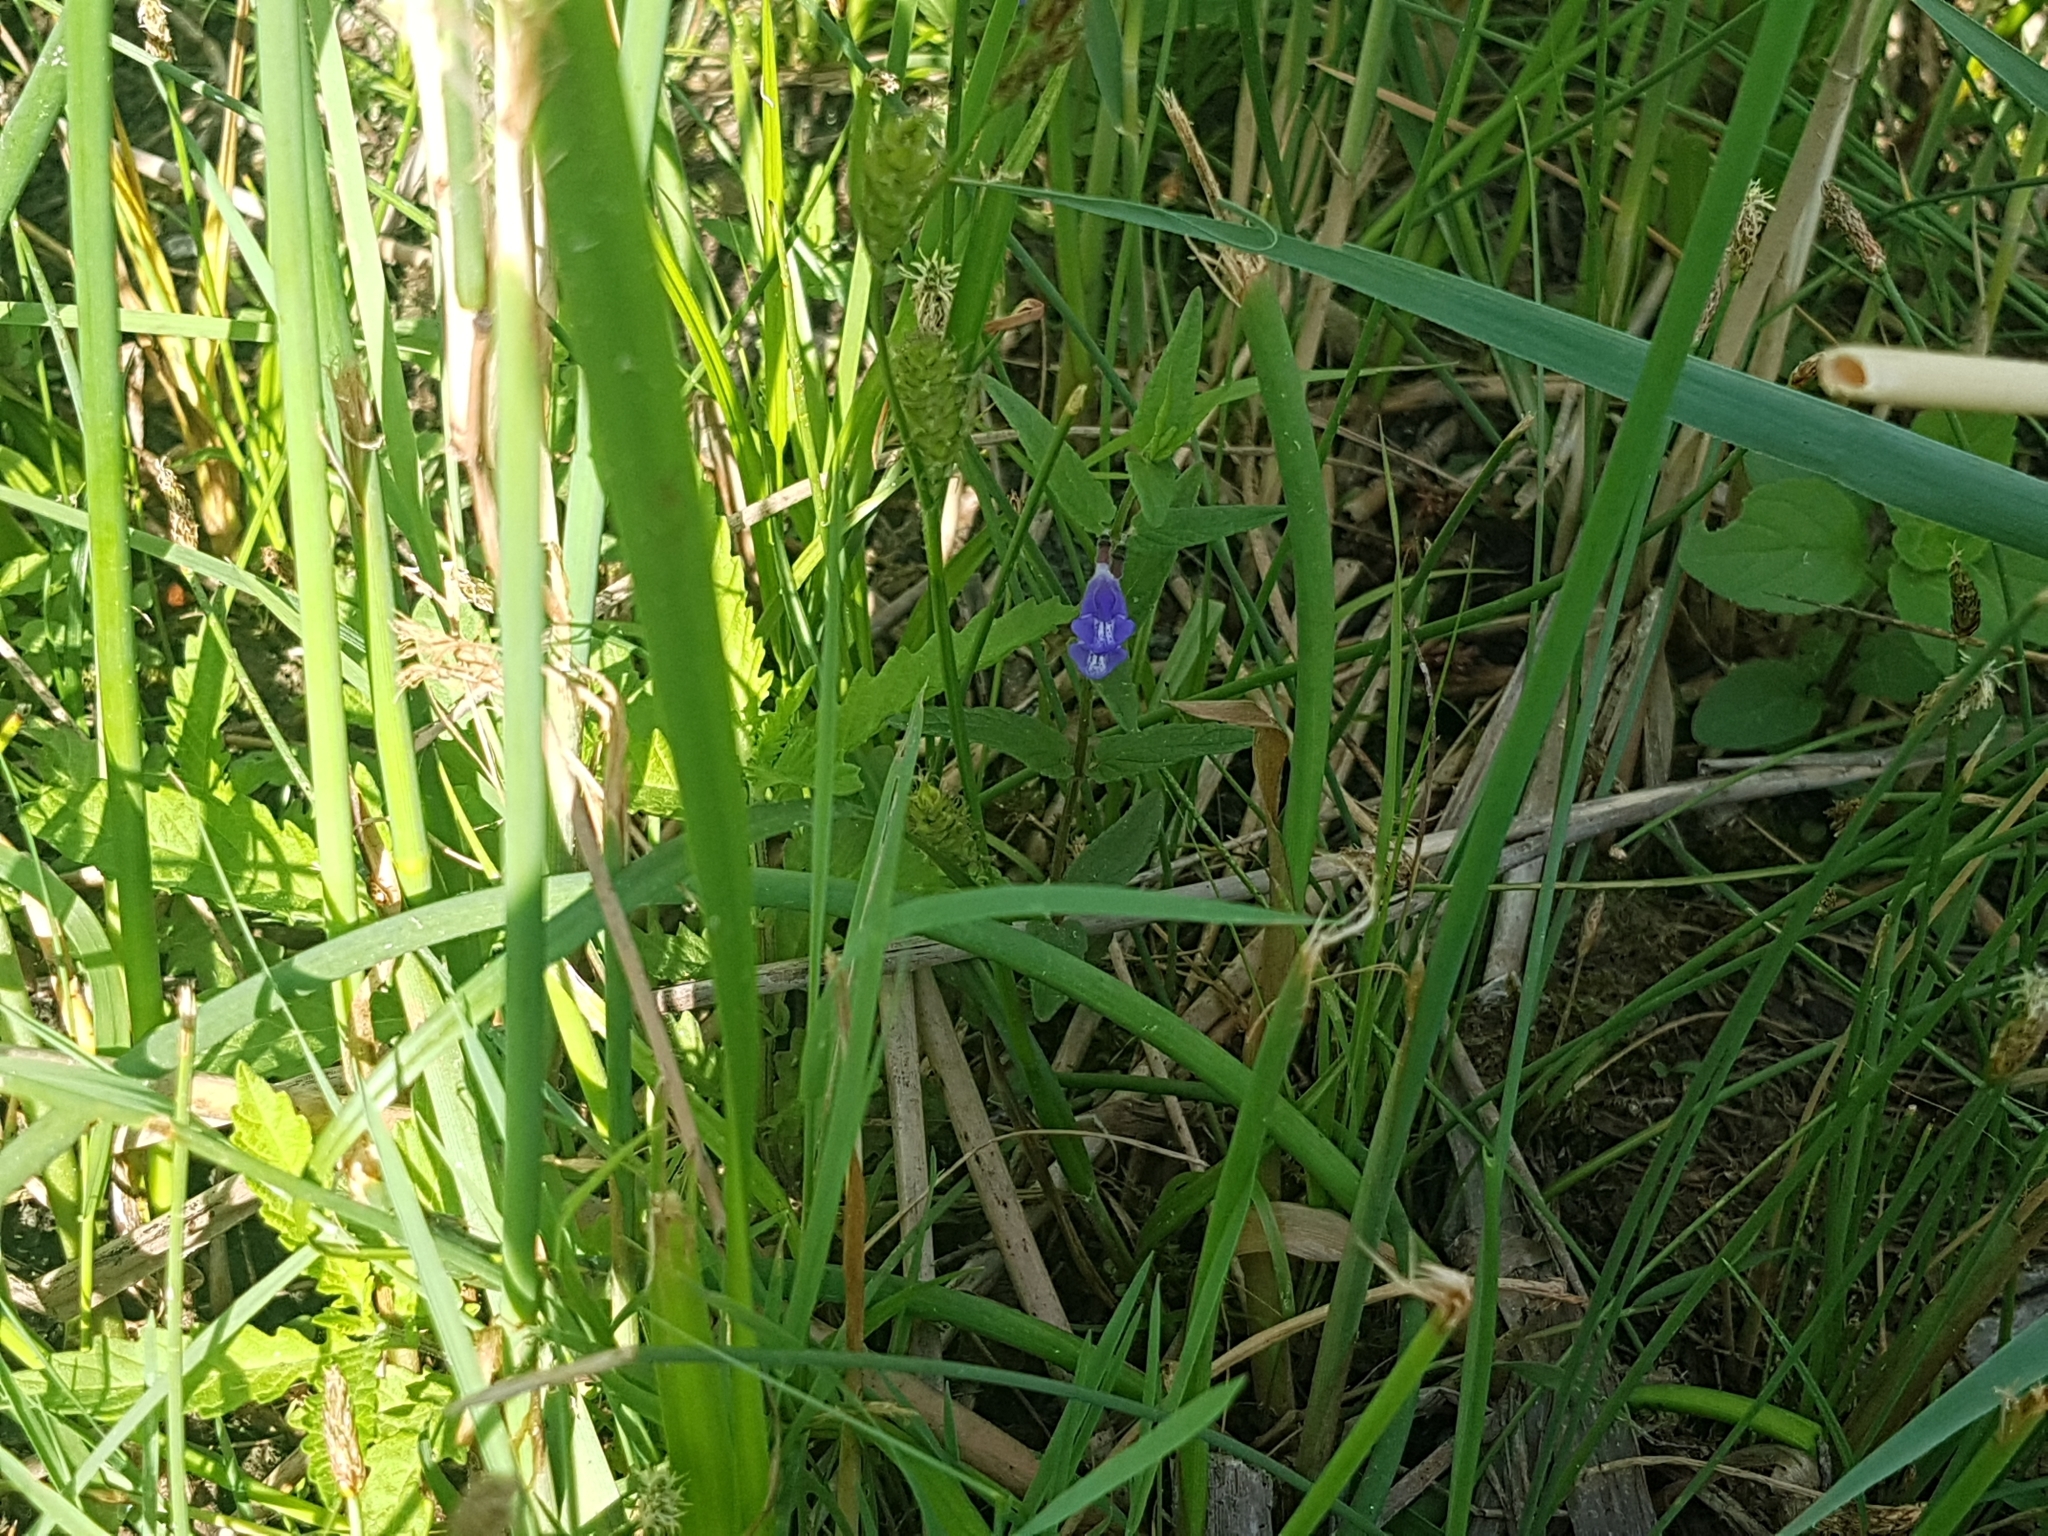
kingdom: Plantae
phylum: Tracheophyta
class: Magnoliopsida
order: Lamiales
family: Lamiaceae
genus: Scutellaria
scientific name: Scutellaria galericulata
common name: Skullcap
